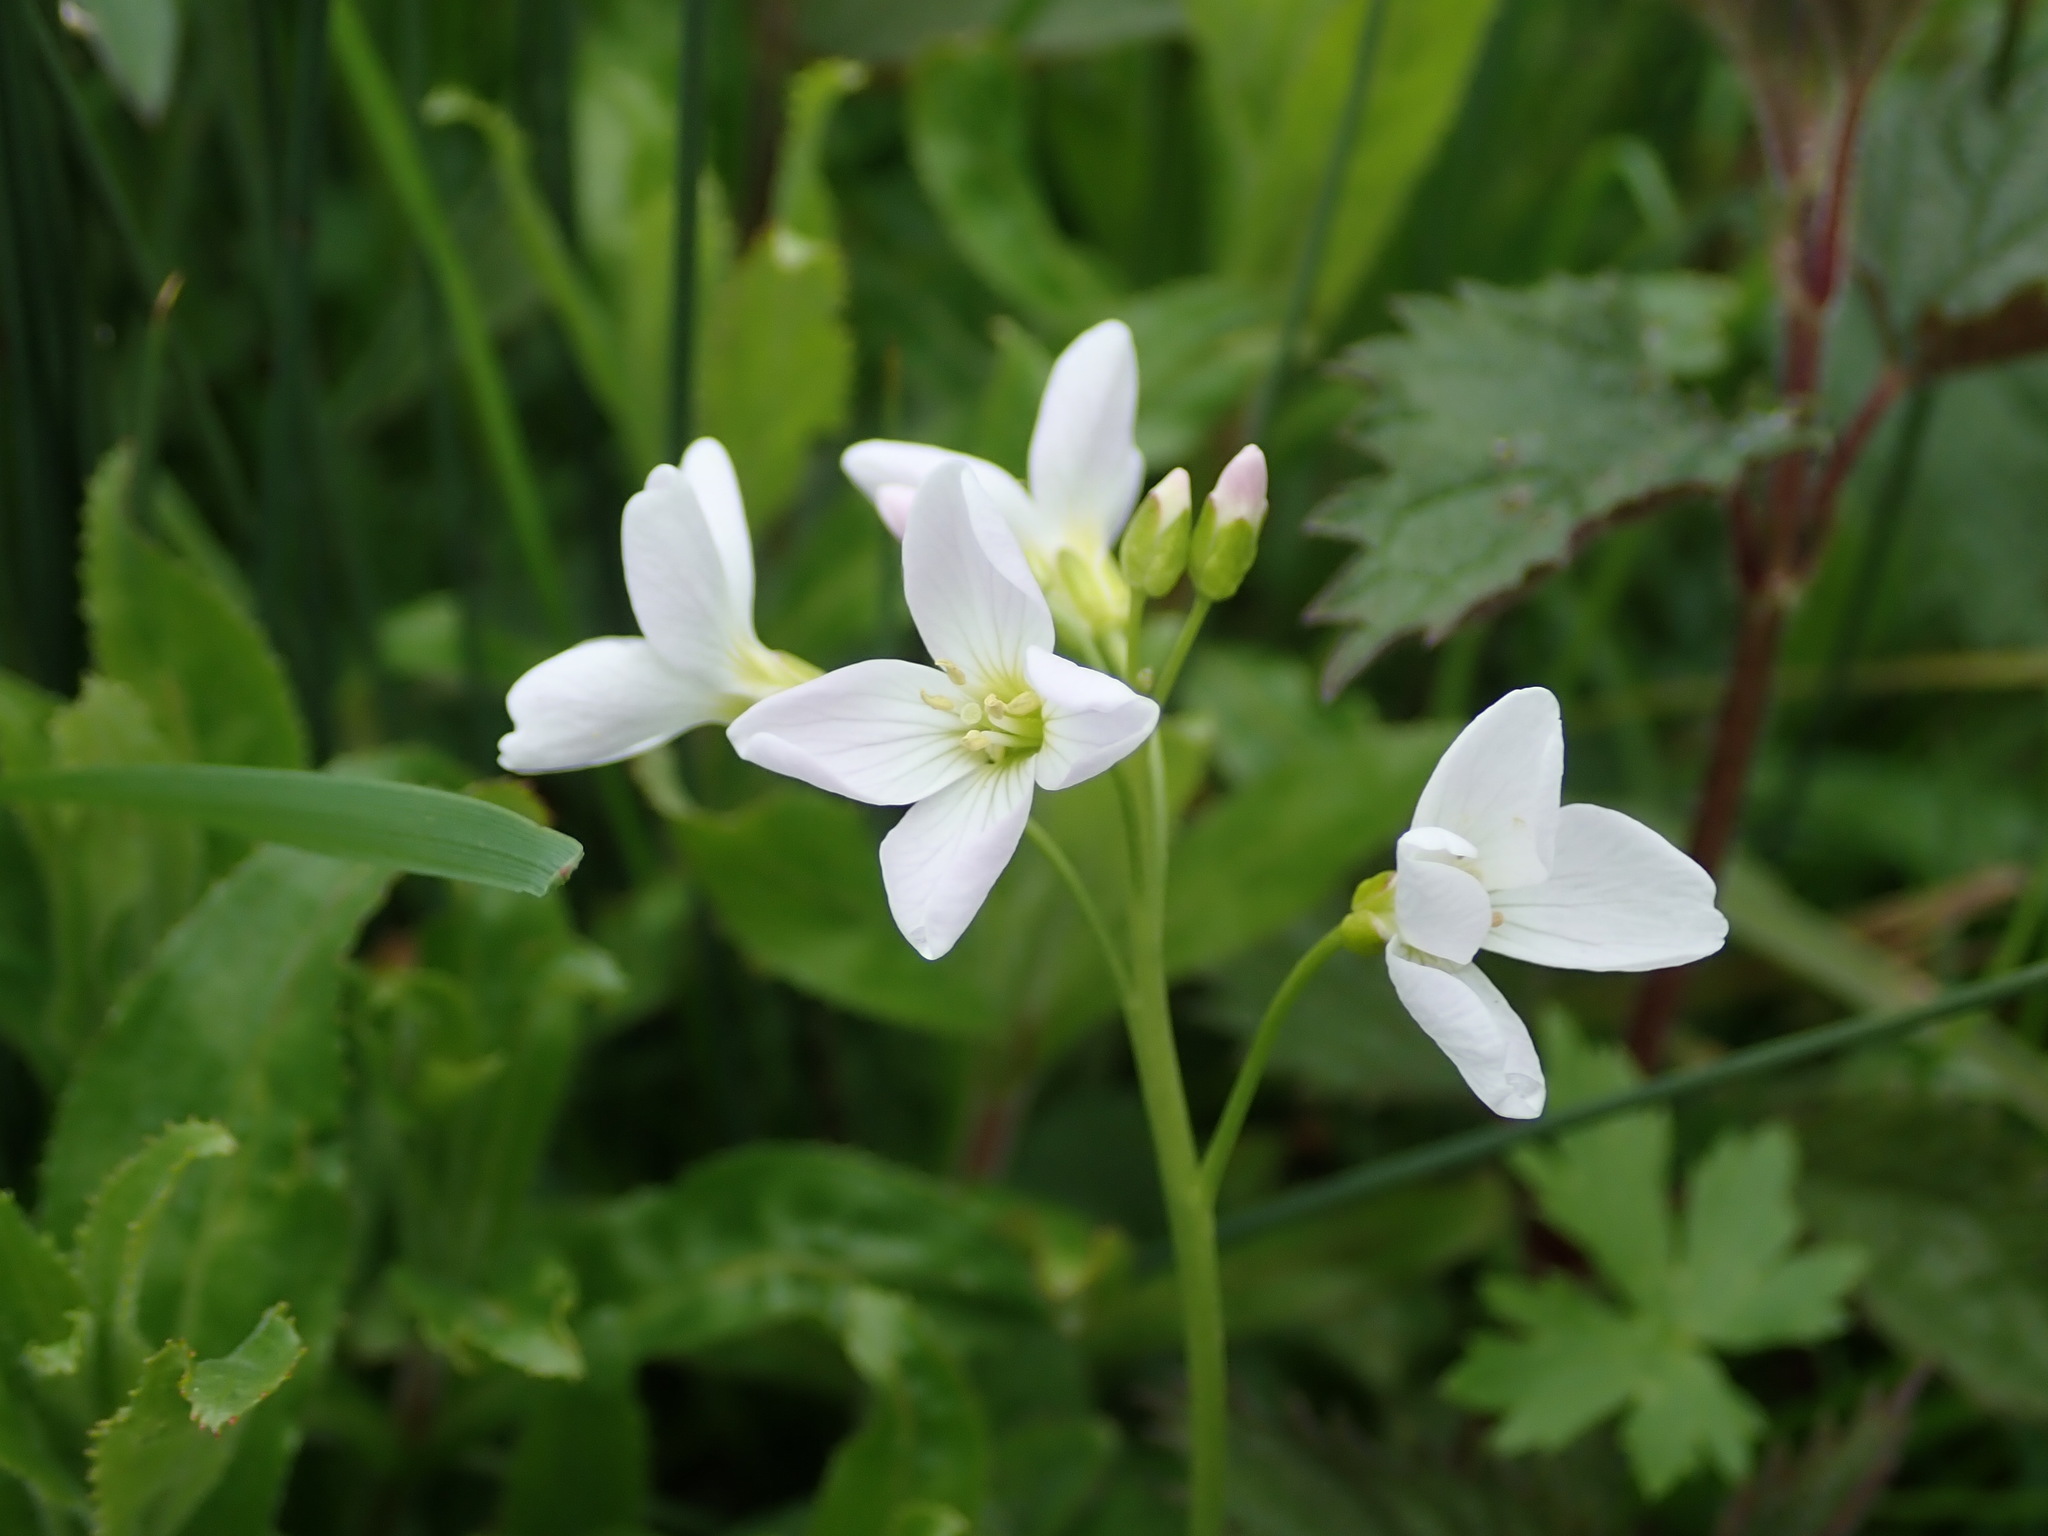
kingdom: Plantae
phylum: Tracheophyta
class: Magnoliopsida
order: Brassicales
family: Brassicaceae
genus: Cardamine
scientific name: Cardamine pratensis
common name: Cuckoo flower
